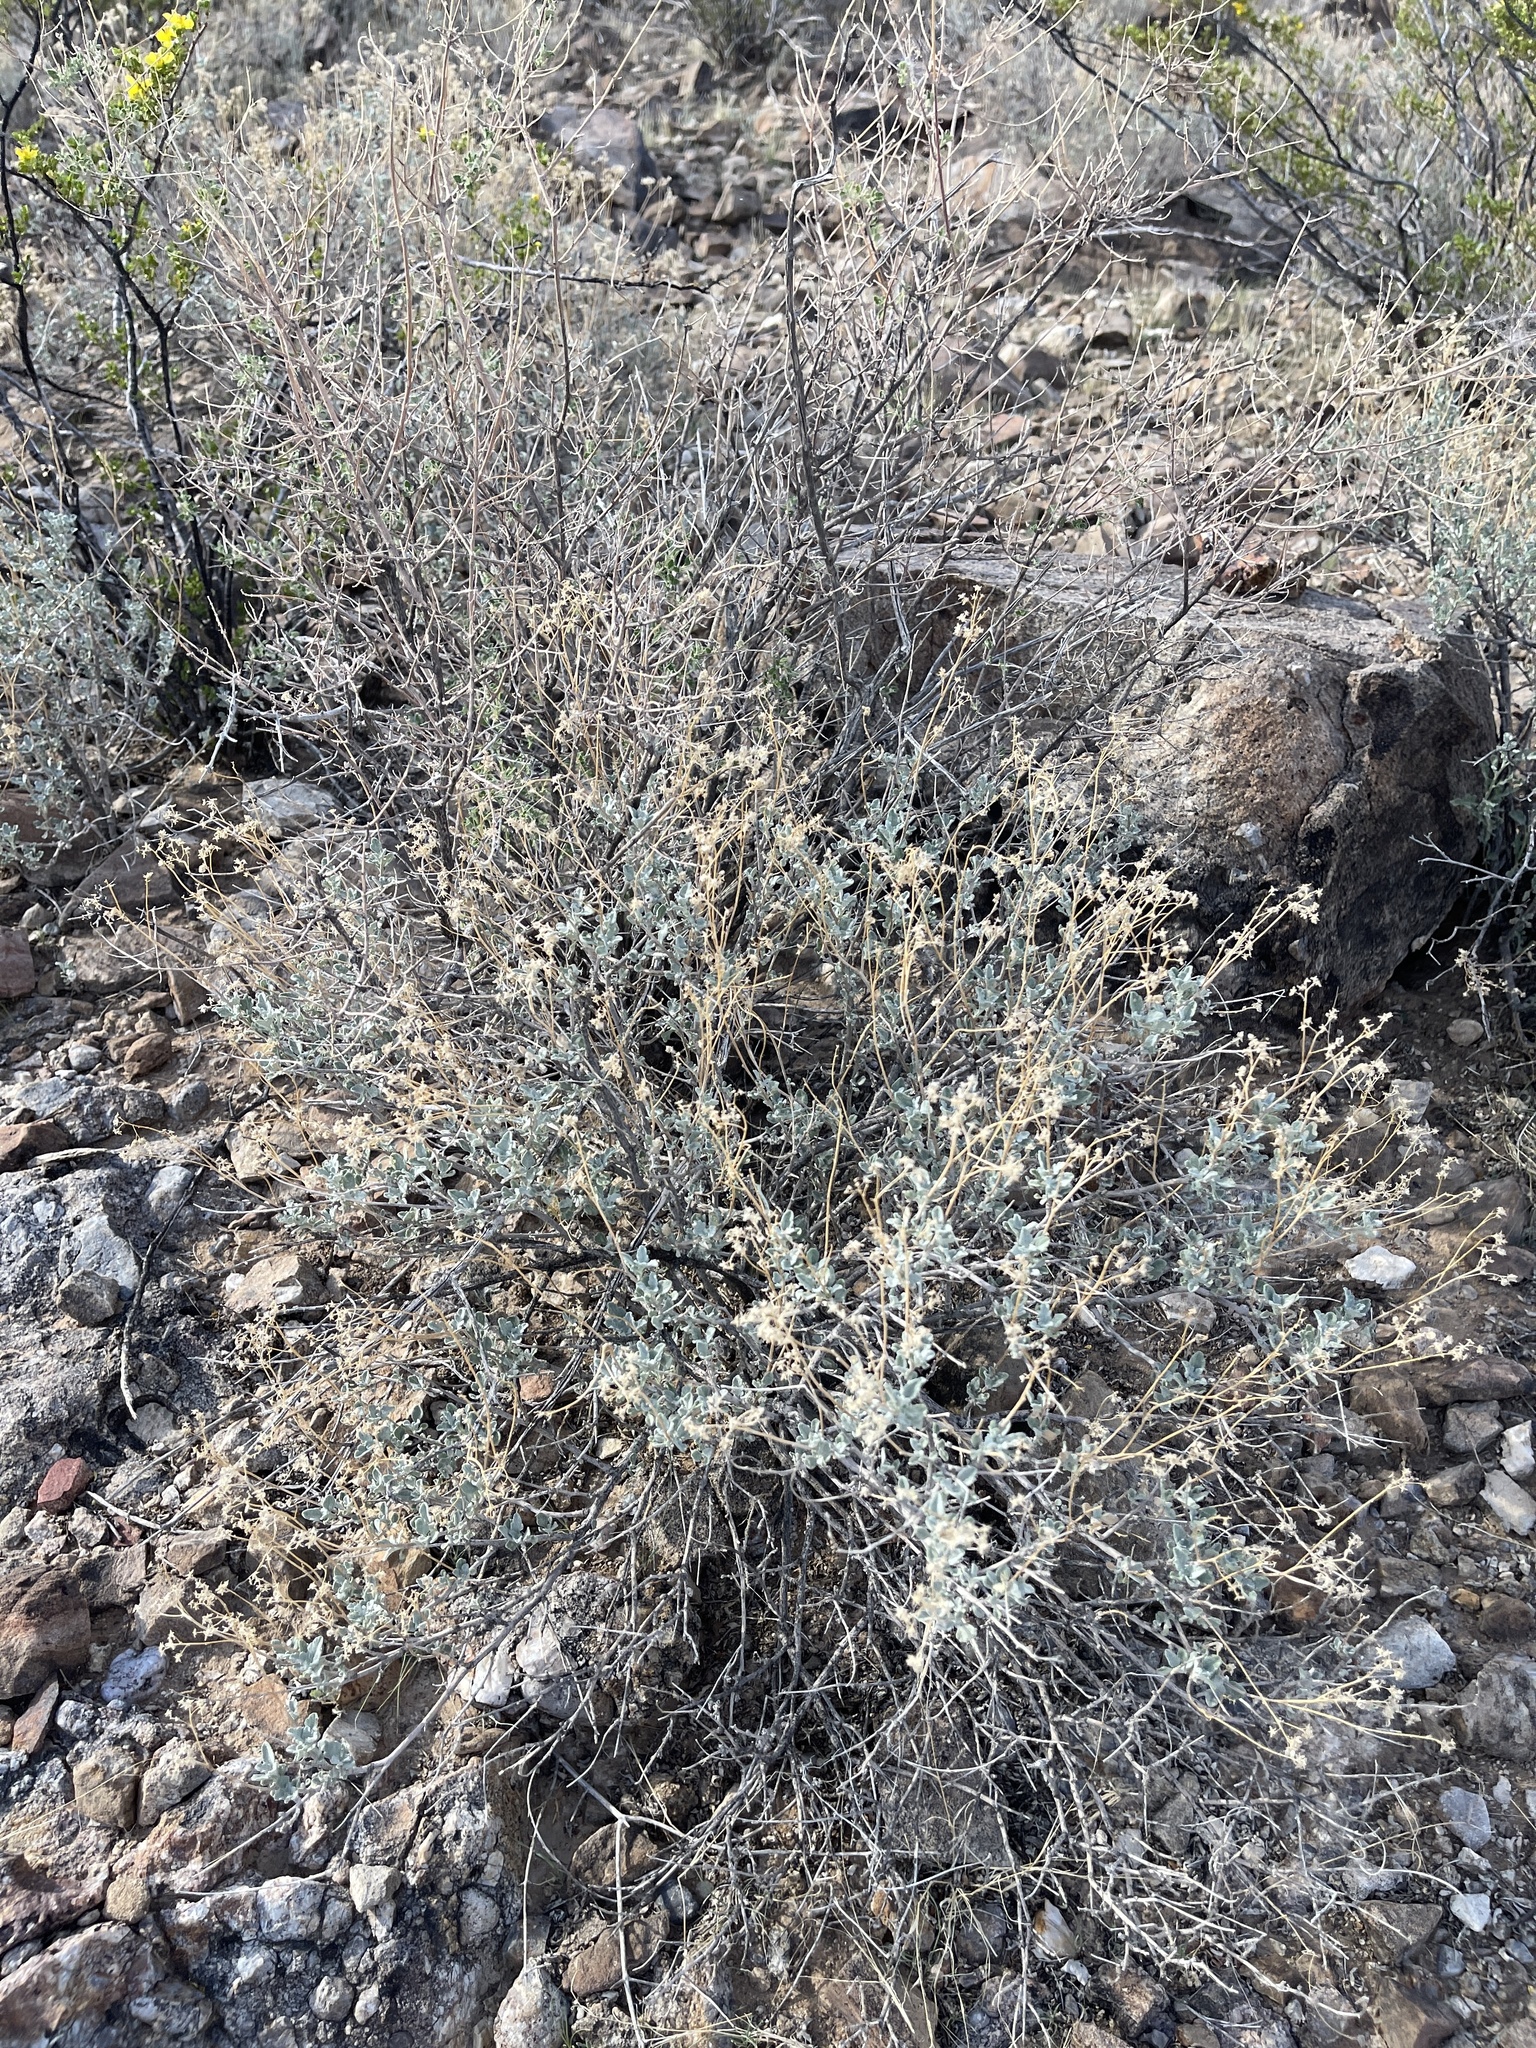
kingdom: Plantae
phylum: Tracheophyta
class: Magnoliopsida
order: Asterales
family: Asteraceae
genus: Parthenium
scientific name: Parthenium incanum
